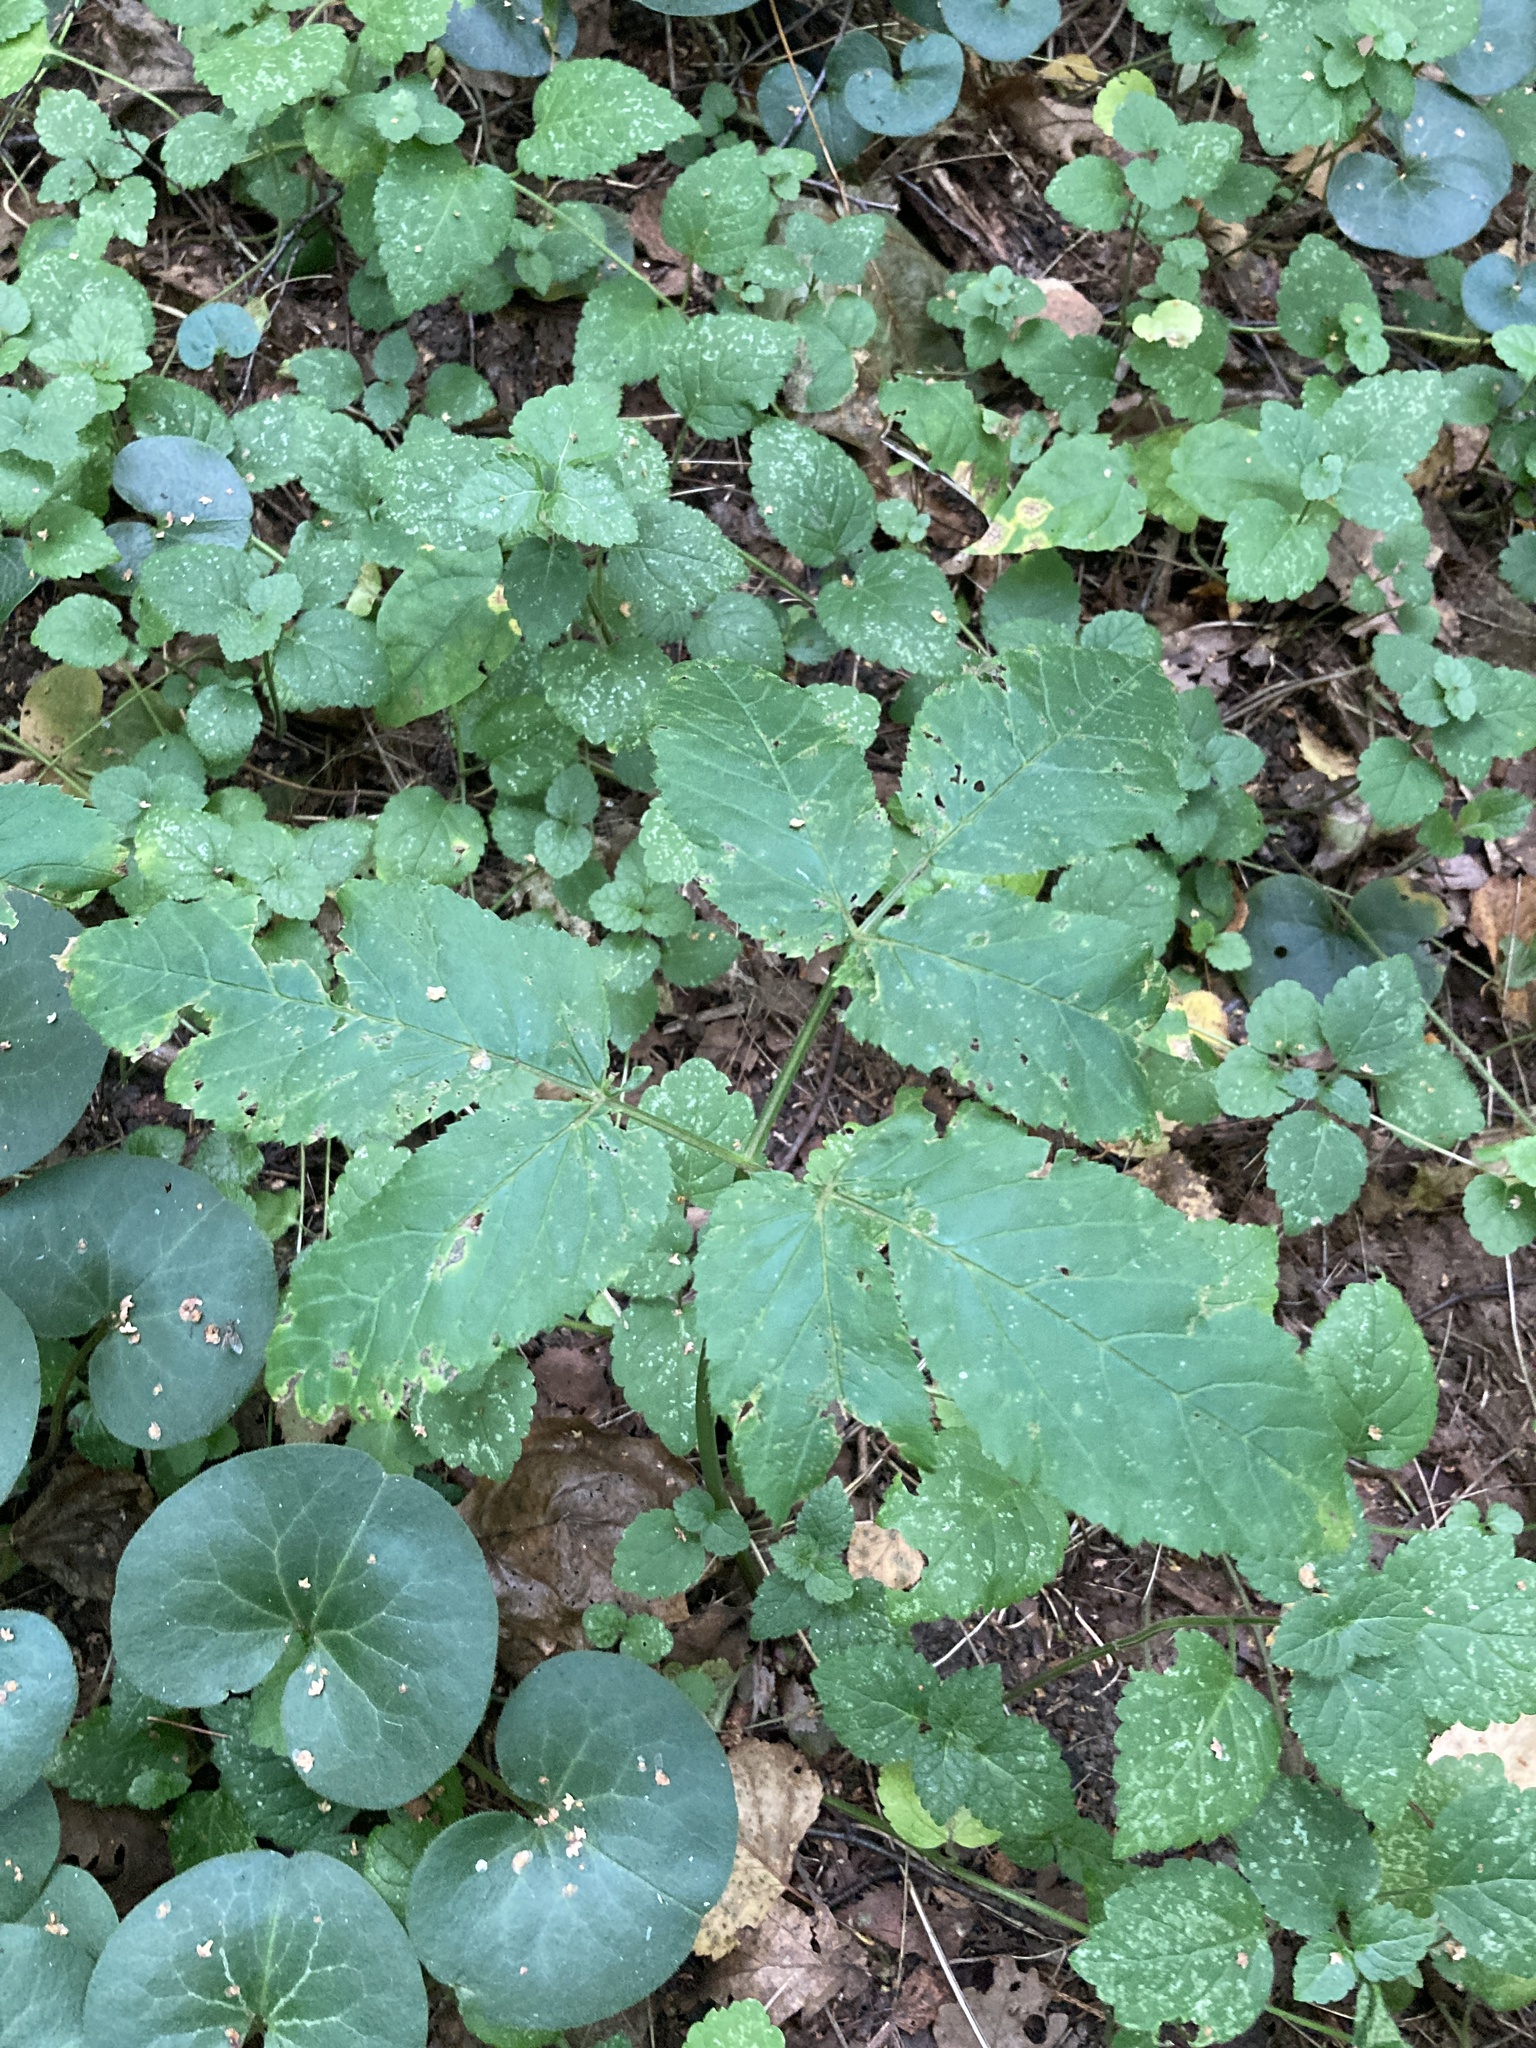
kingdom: Plantae
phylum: Tracheophyta
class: Magnoliopsida
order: Apiales
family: Apiaceae
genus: Aegopodium
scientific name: Aegopodium podagraria
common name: Ground-elder
